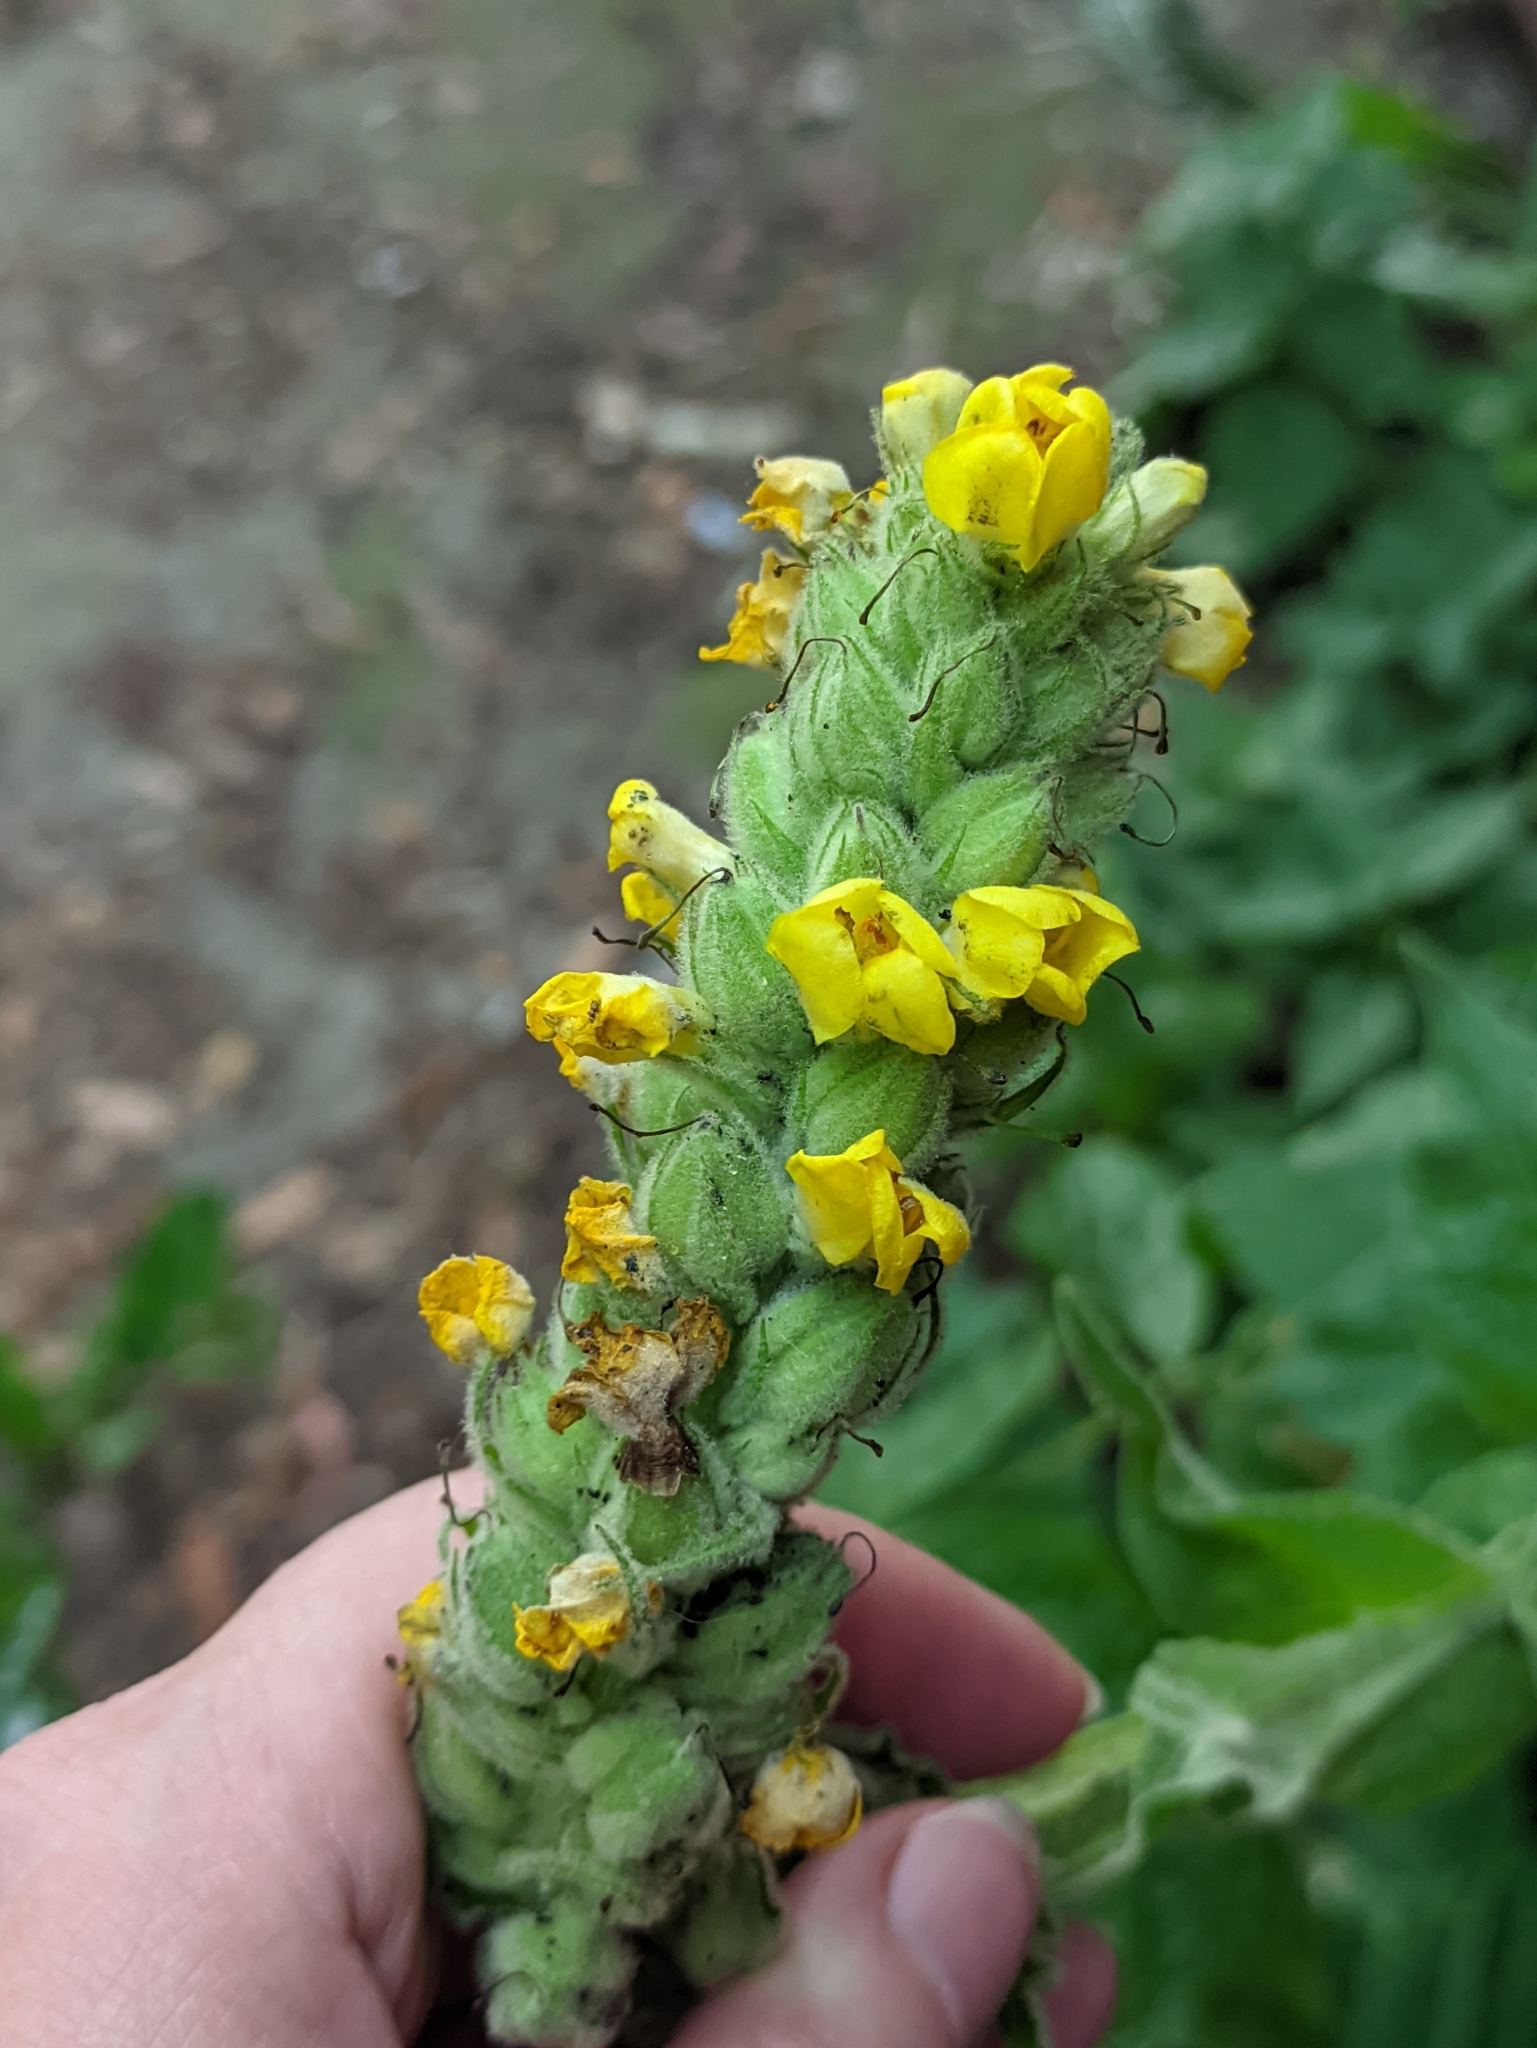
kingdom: Plantae
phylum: Tracheophyta
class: Magnoliopsida
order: Lamiales
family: Scrophulariaceae
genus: Verbascum
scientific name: Verbascum thapsus
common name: Common mullein
